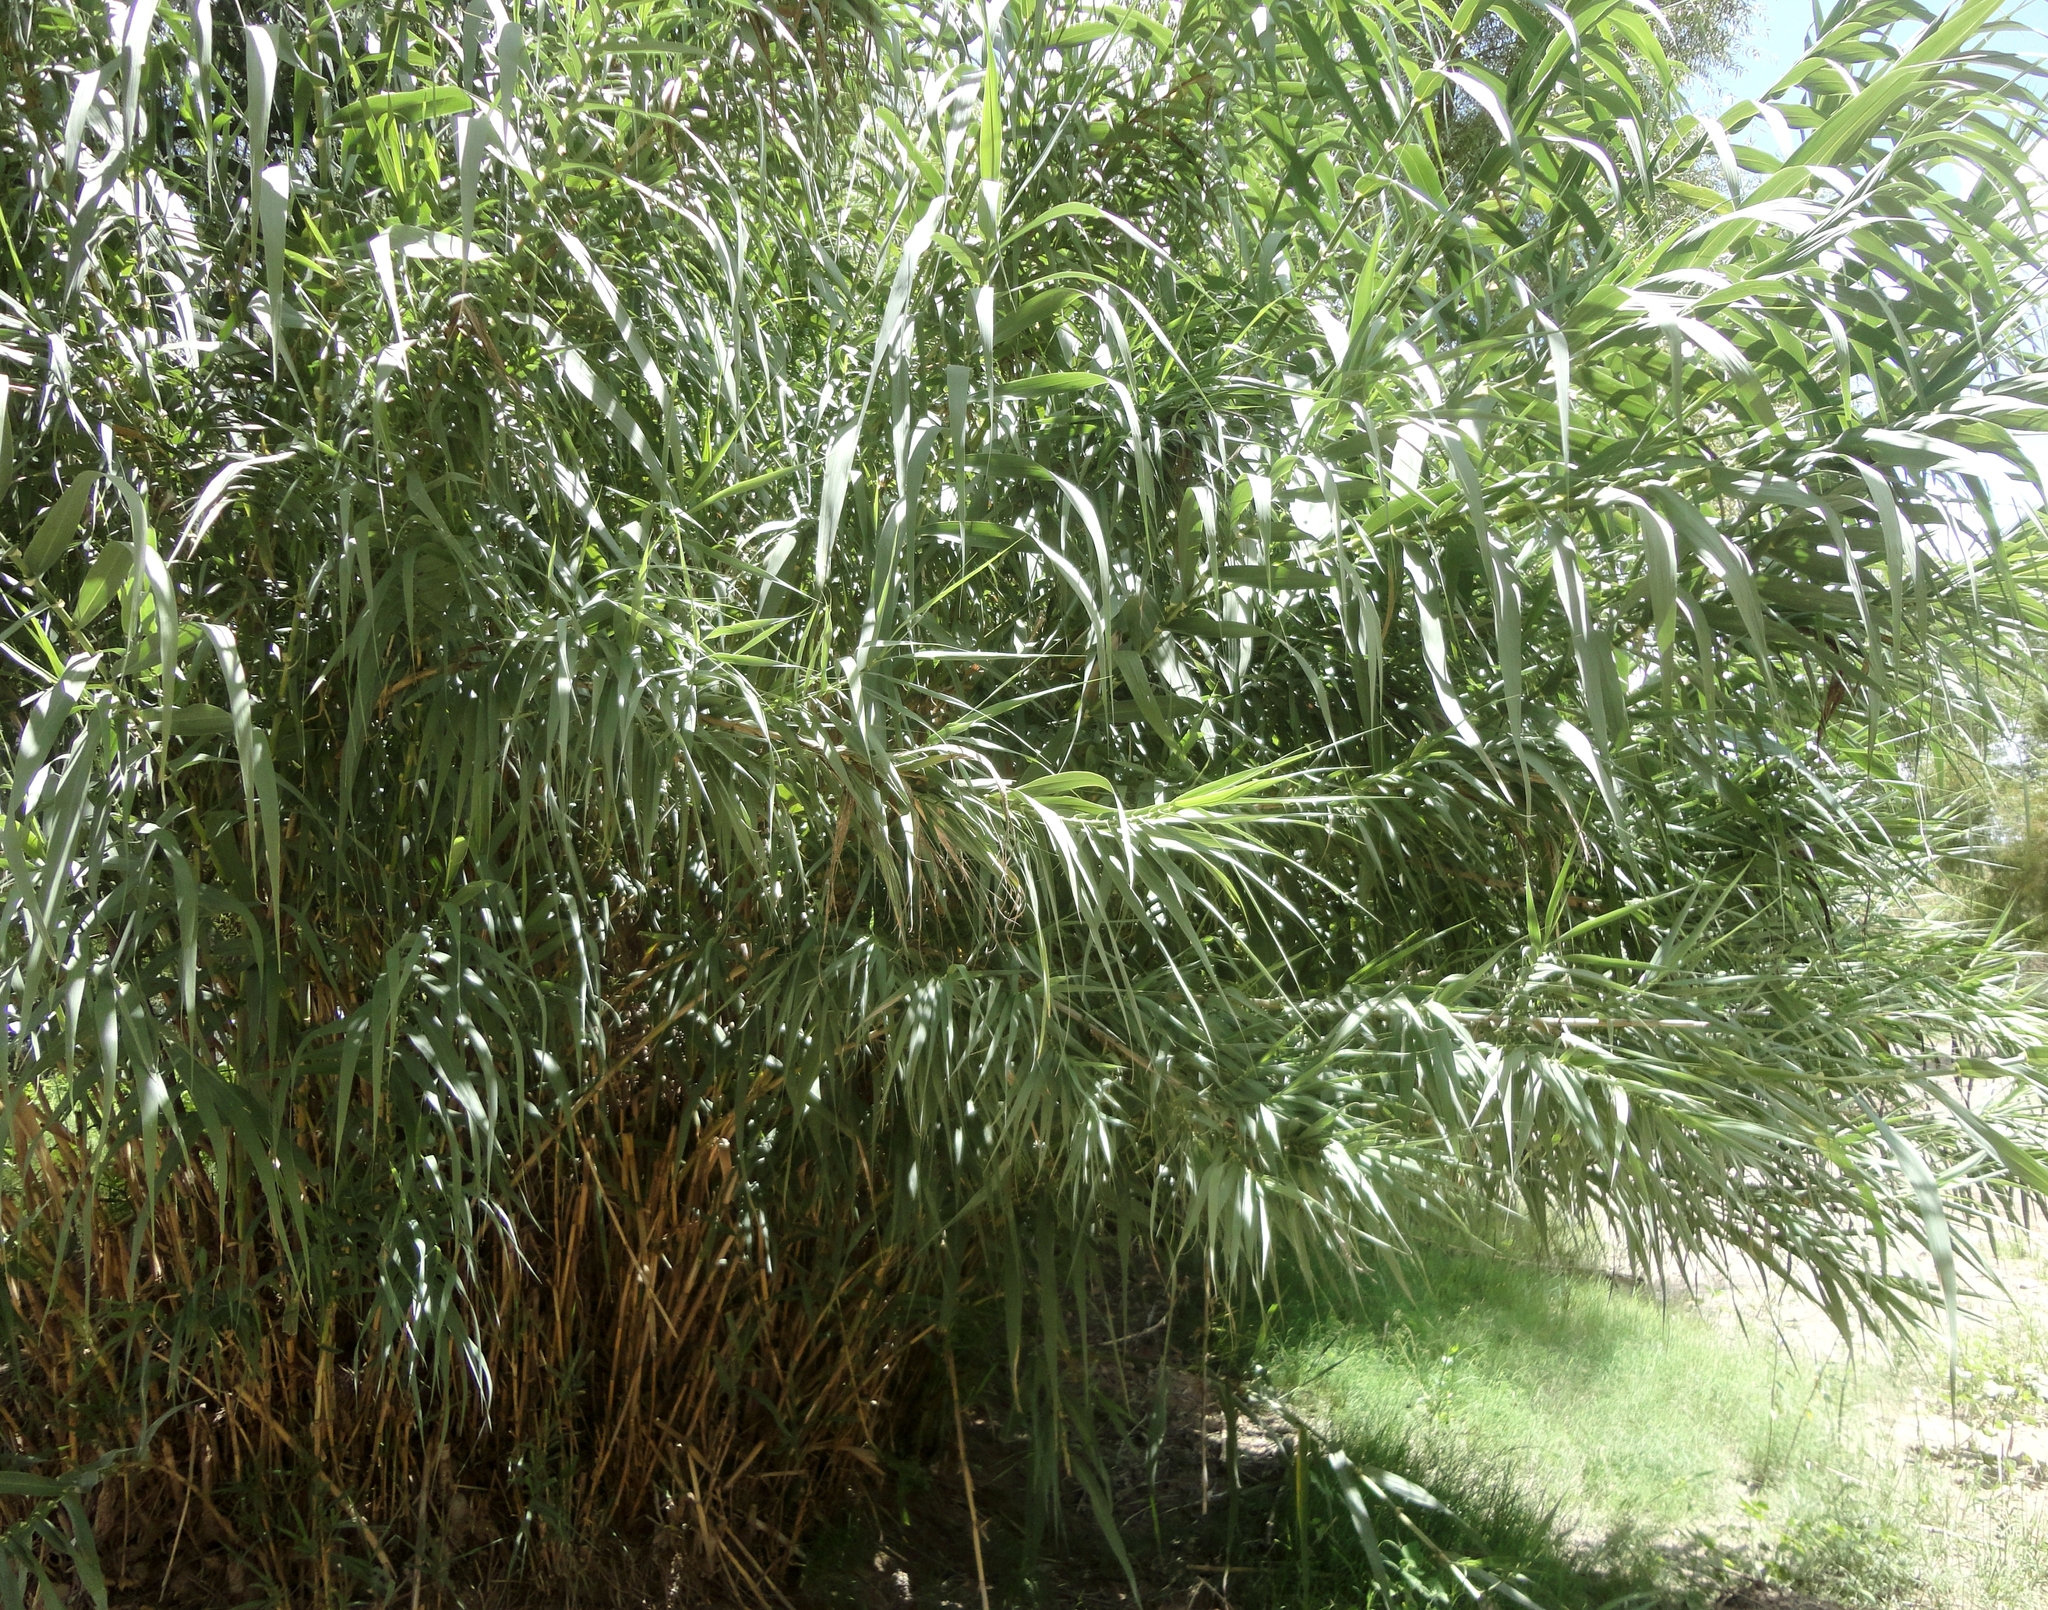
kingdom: Plantae
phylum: Tracheophyta
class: Liliopsida
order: Poales
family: Poaceae
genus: Arundo
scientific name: Arundo donax
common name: Giant reed
